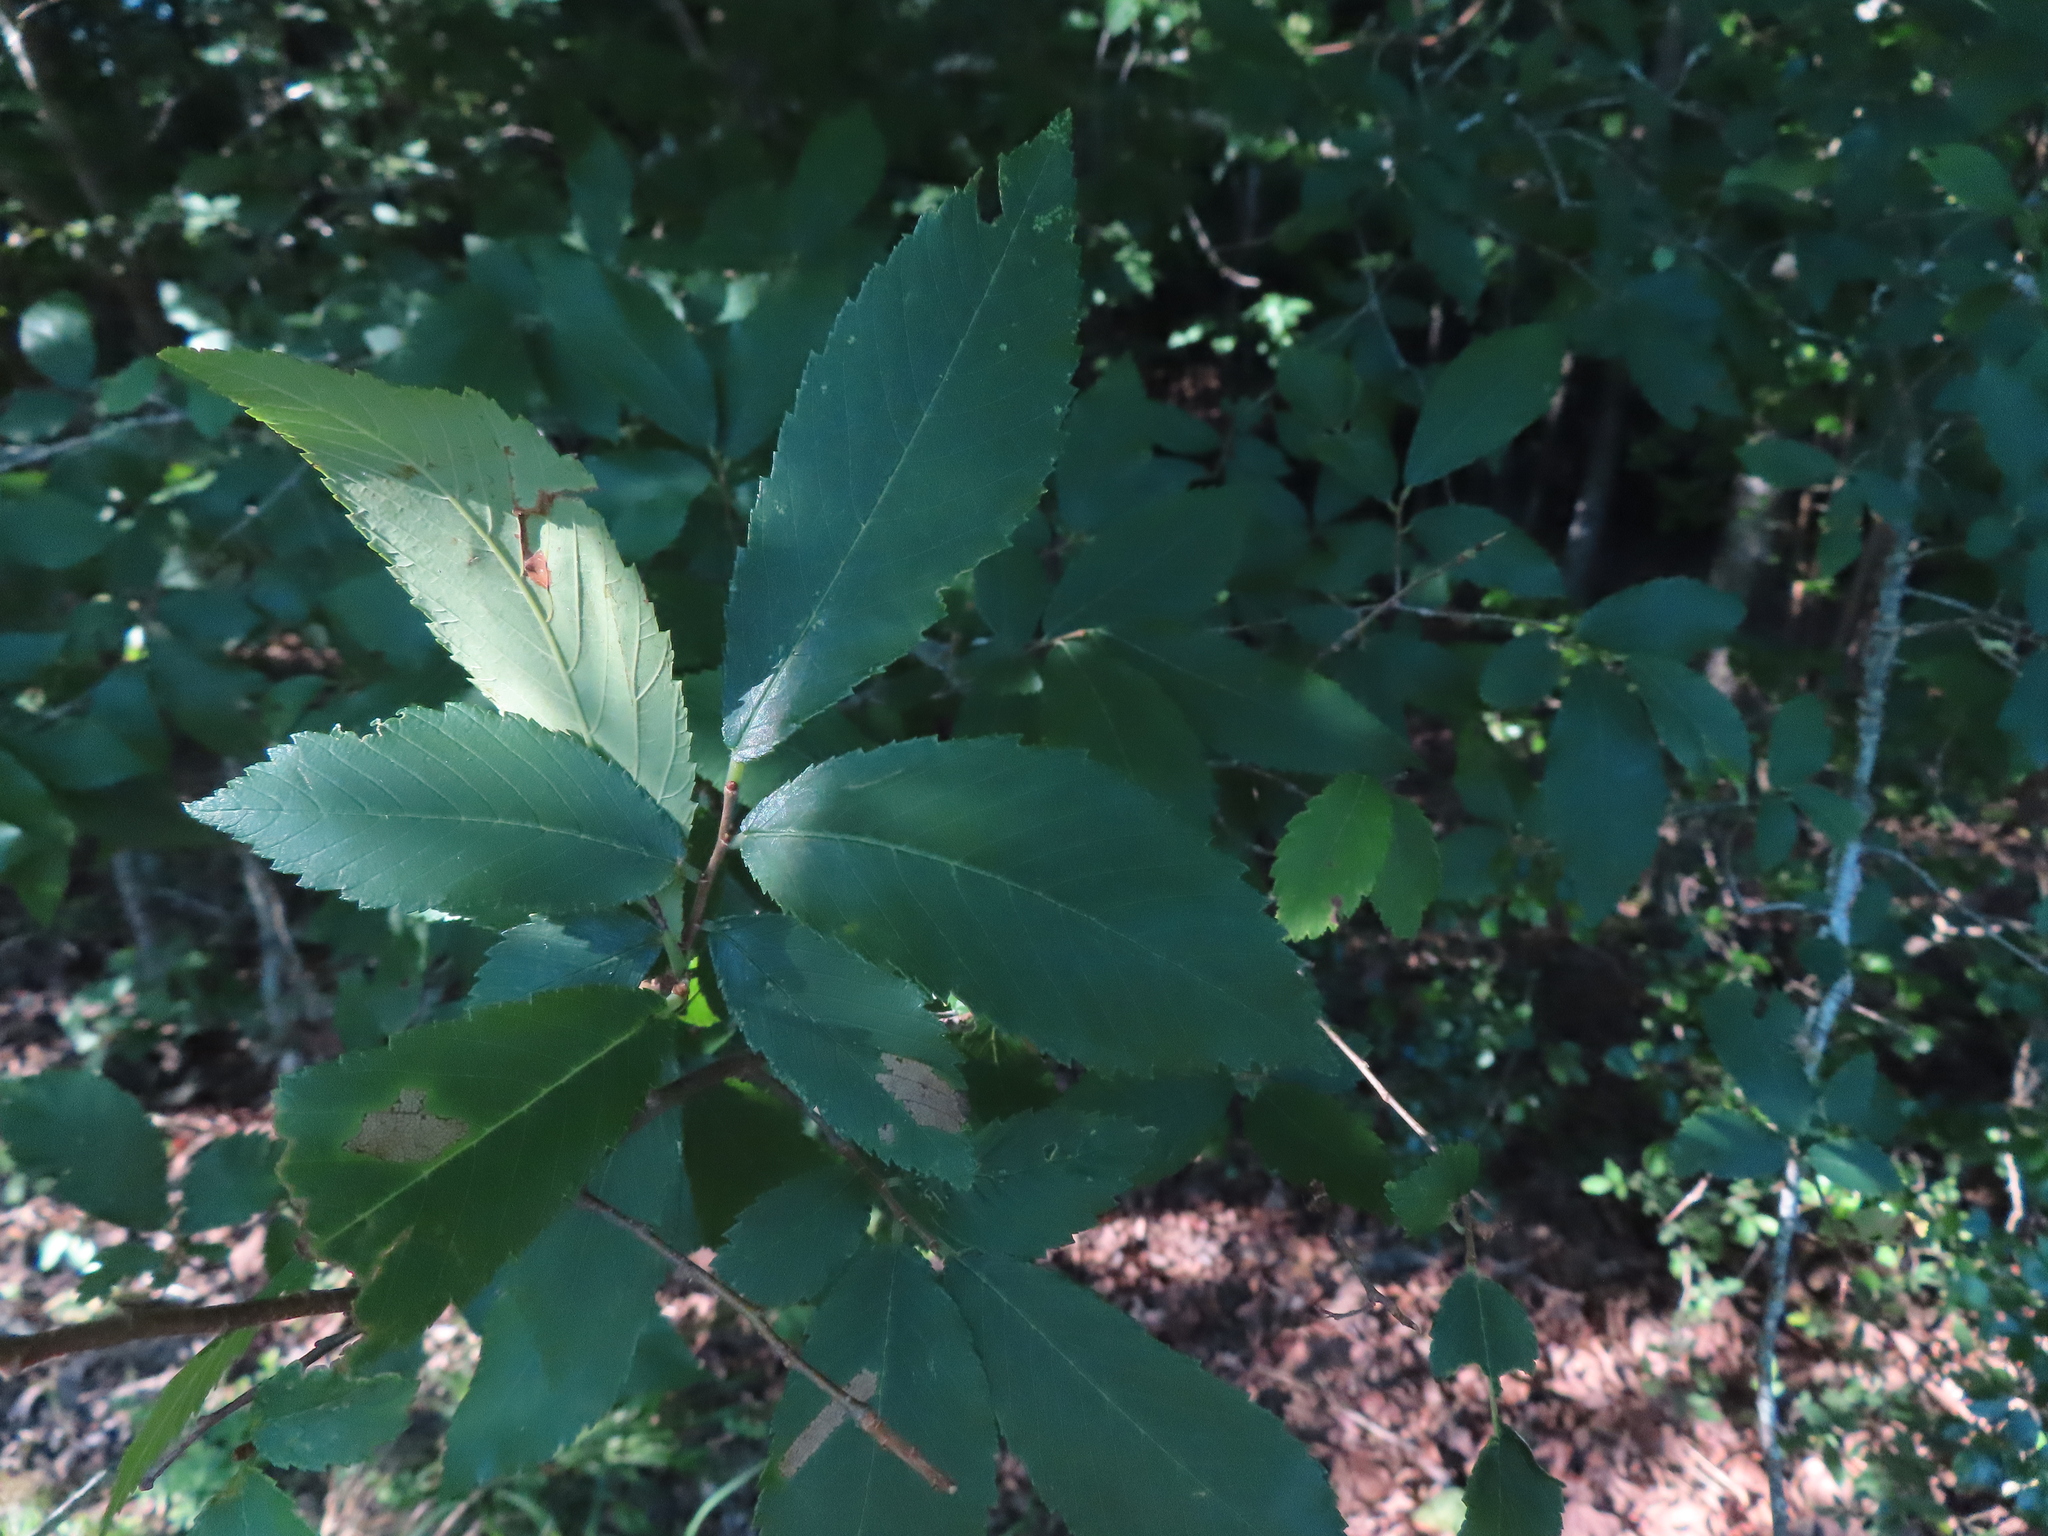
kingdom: Plantae
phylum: Tracheophyta
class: Magnoliopsida
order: Rosales
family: Ulmaceae
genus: Ulmus
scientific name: Ulmus alata
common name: Winged elm
